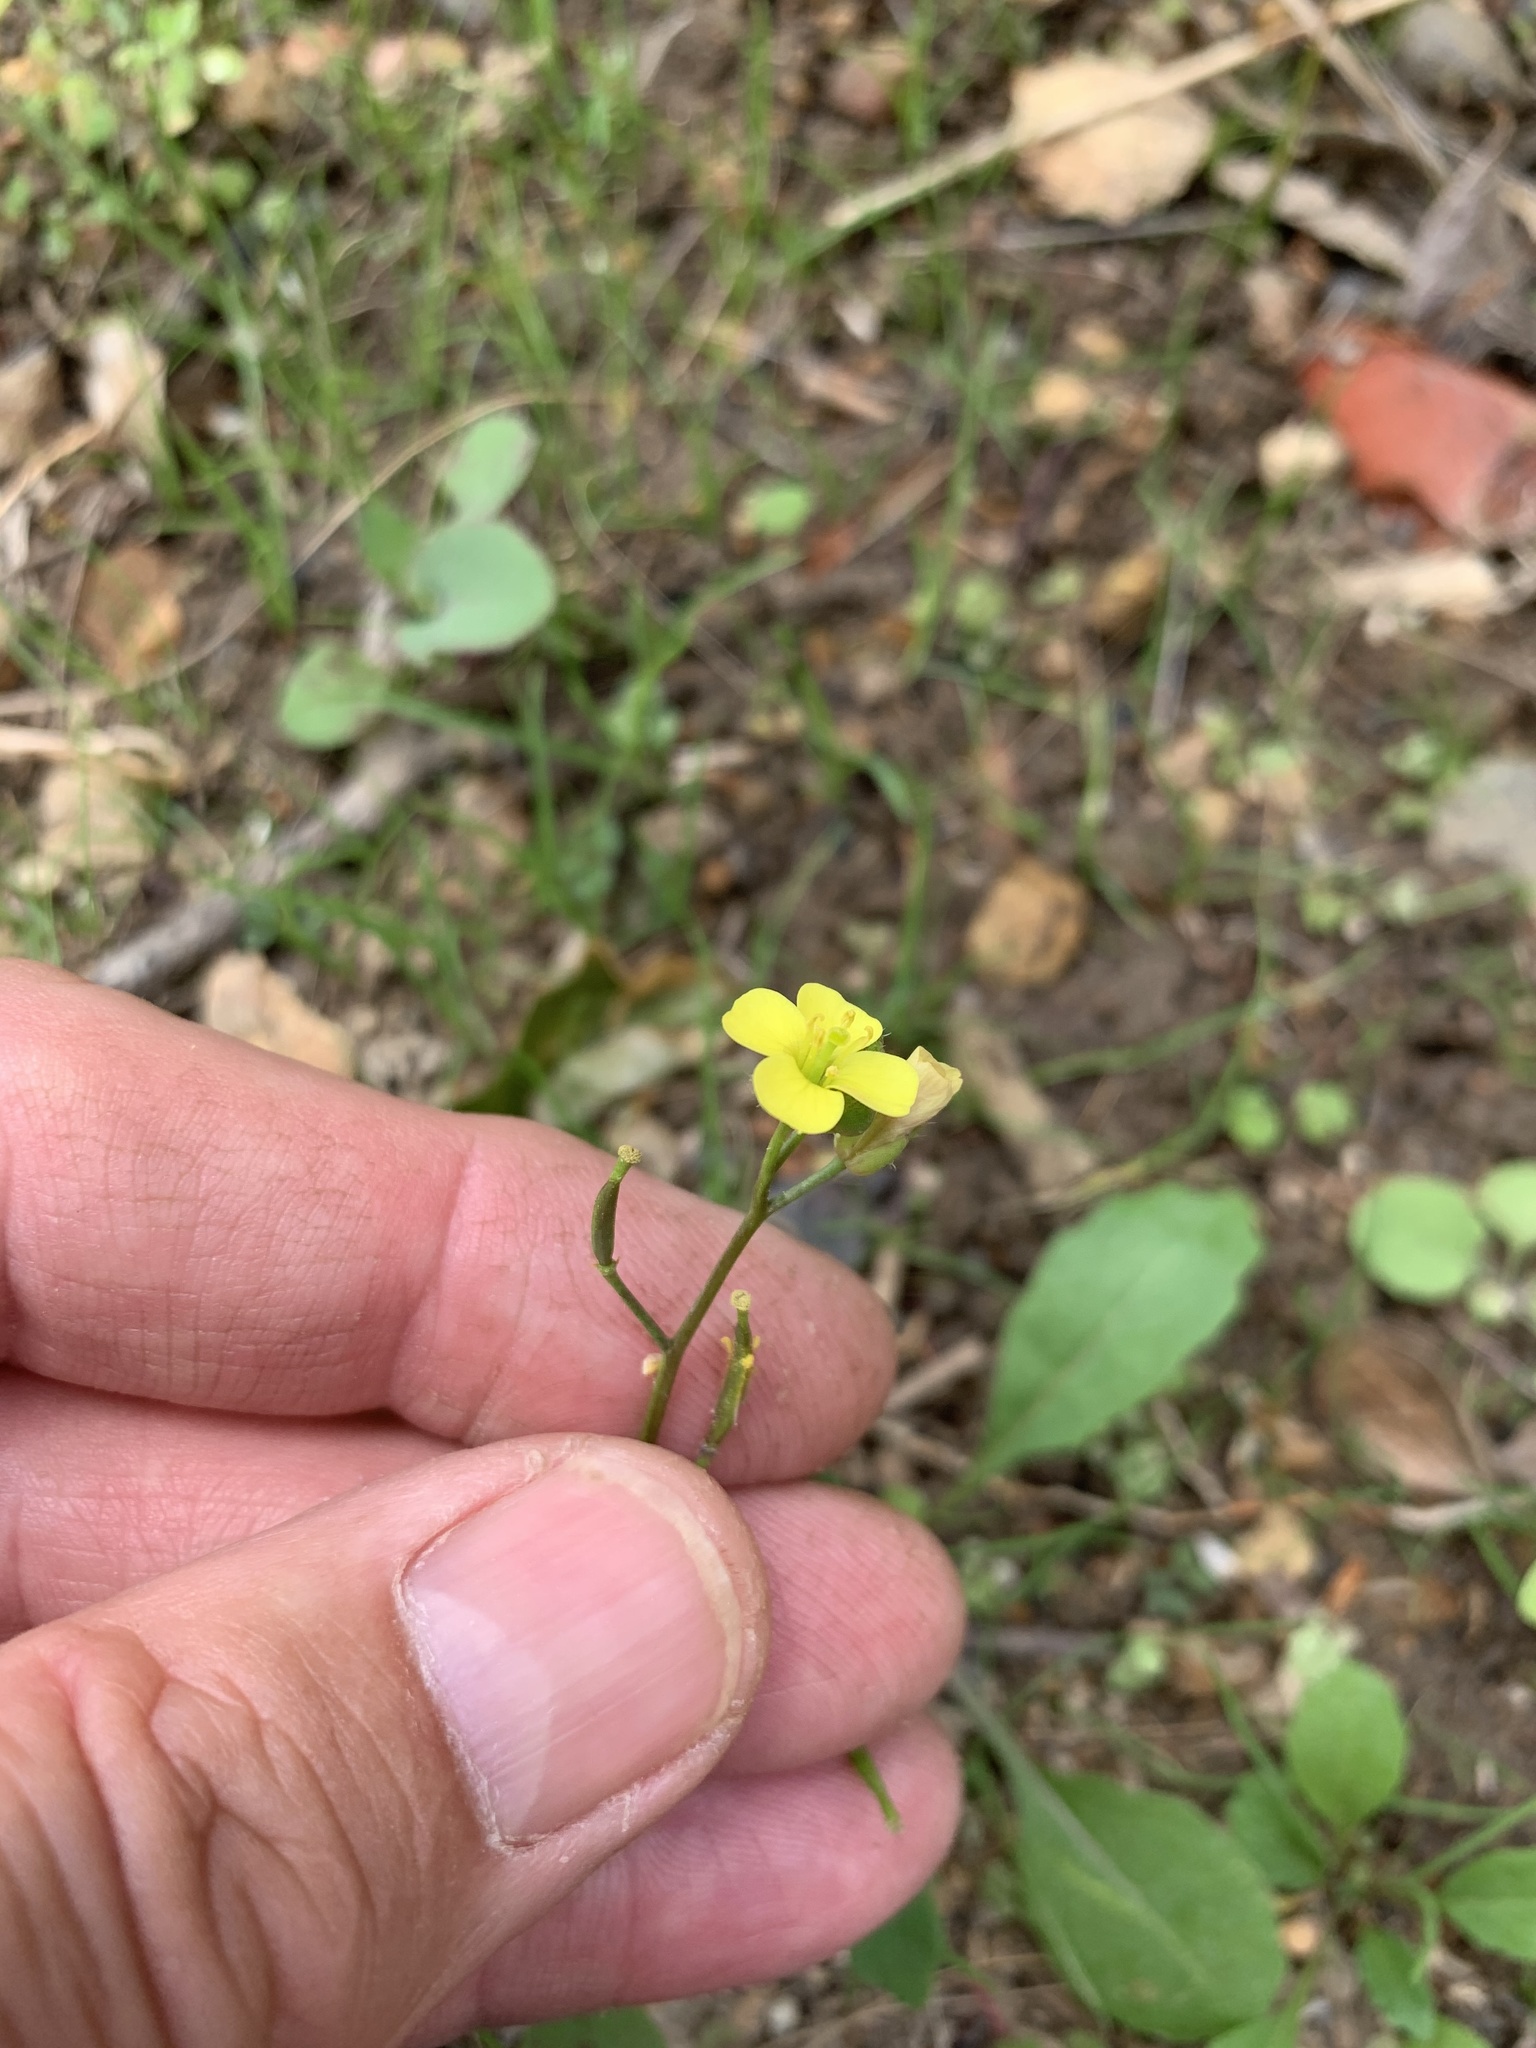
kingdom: Plantae
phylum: Tracheophyta
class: Magnoliopsida
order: Brassicales
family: Brassicaceae
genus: Diplotaxis
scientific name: Diplotaxis muralis
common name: Annual wall-rocket
